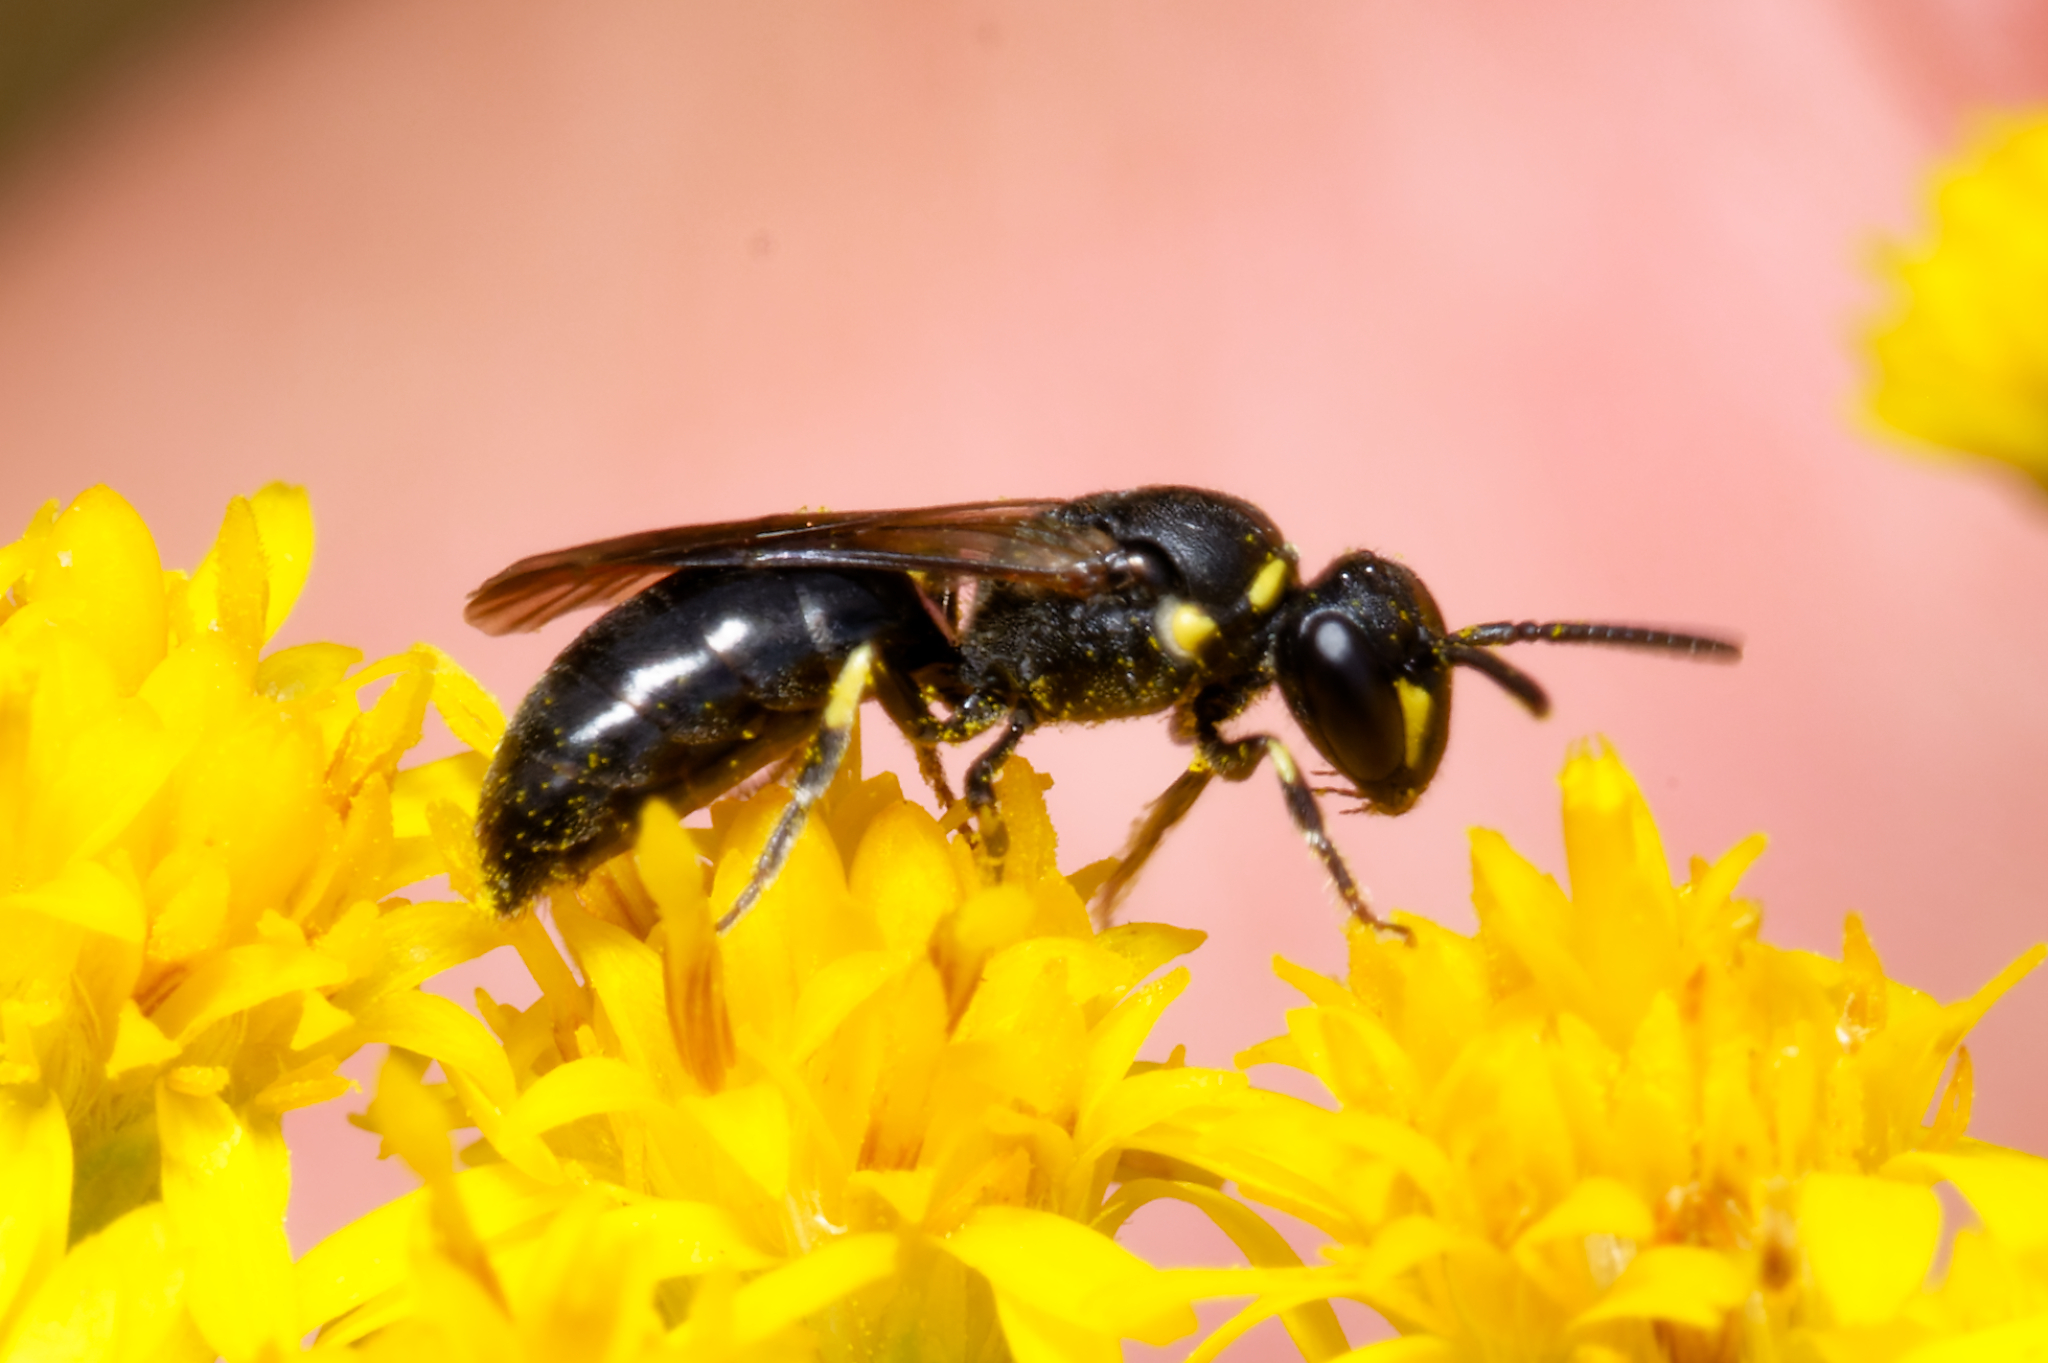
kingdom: Animalia
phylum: Arthropoda
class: Insecta
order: Hymenoptera
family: Colletidae
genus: Hylaeus
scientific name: Hylaeus modestus
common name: Yellow-faced bee
